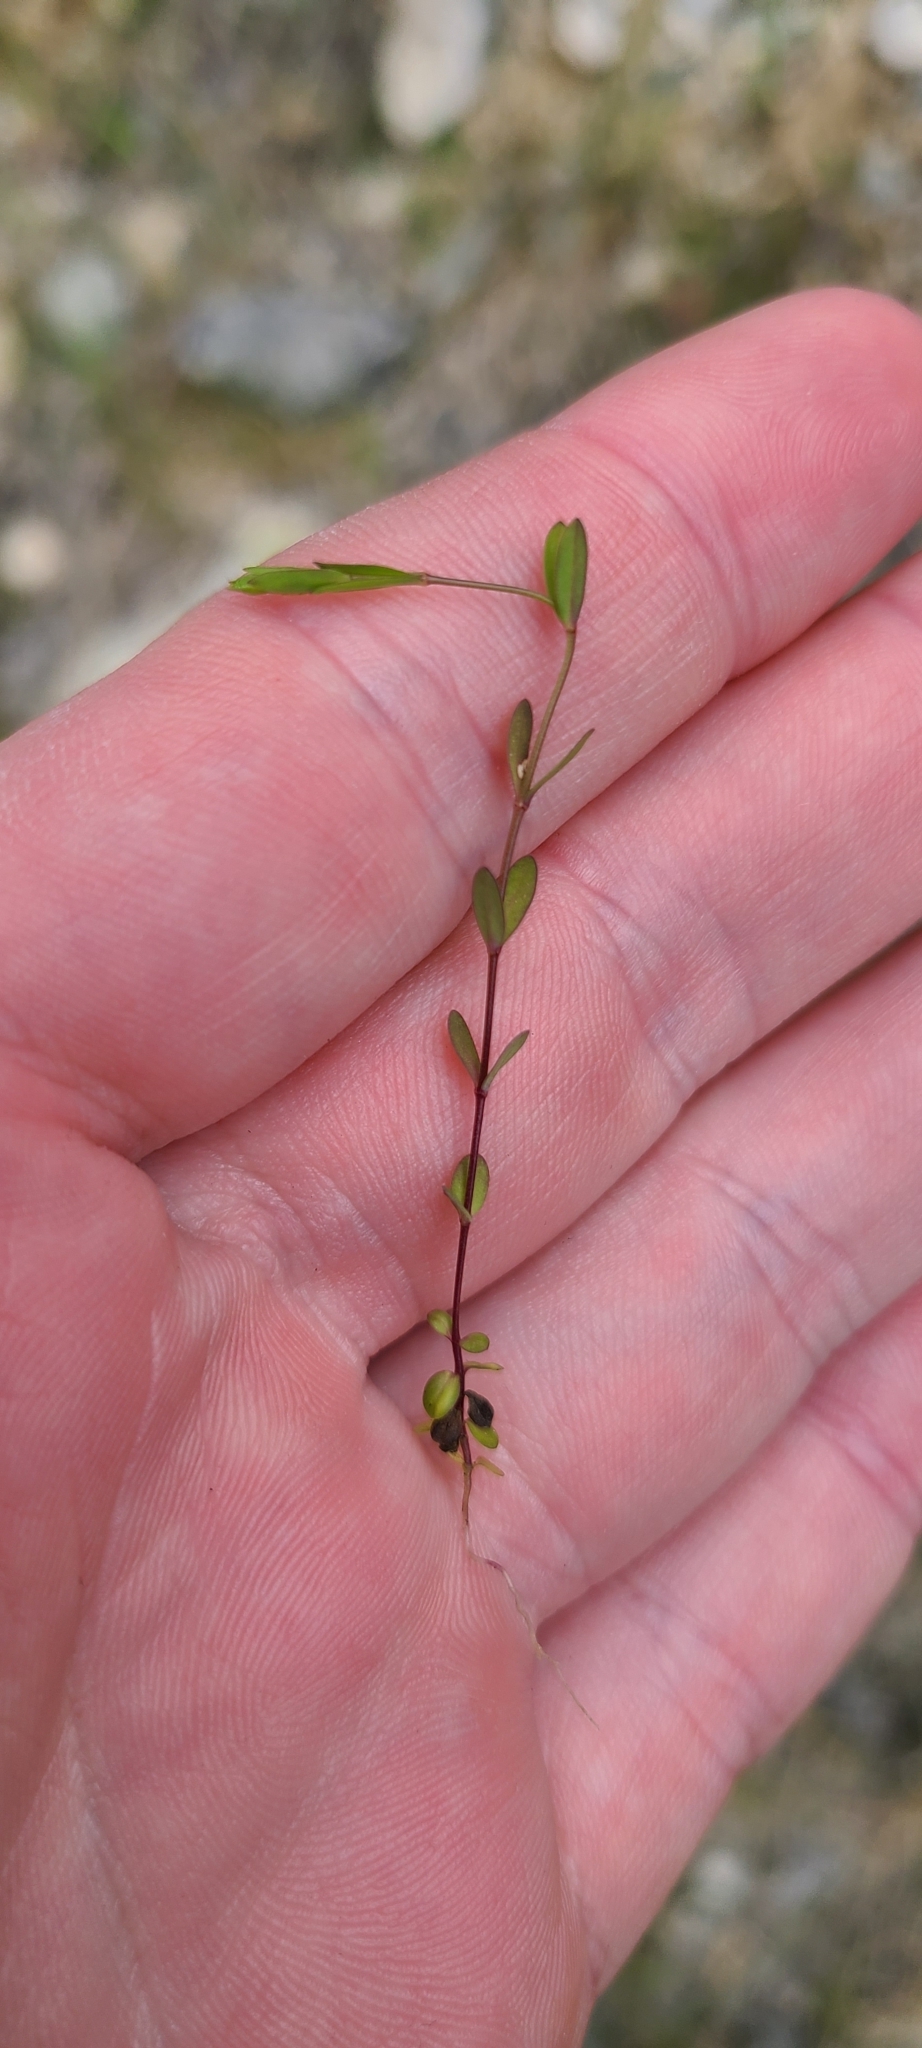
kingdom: Plantae
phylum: Tracheophyta
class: Magnoliopsida
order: Malpighiales
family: Linaceae
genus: Linum
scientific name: Linum catharticum
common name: Fairy flax
